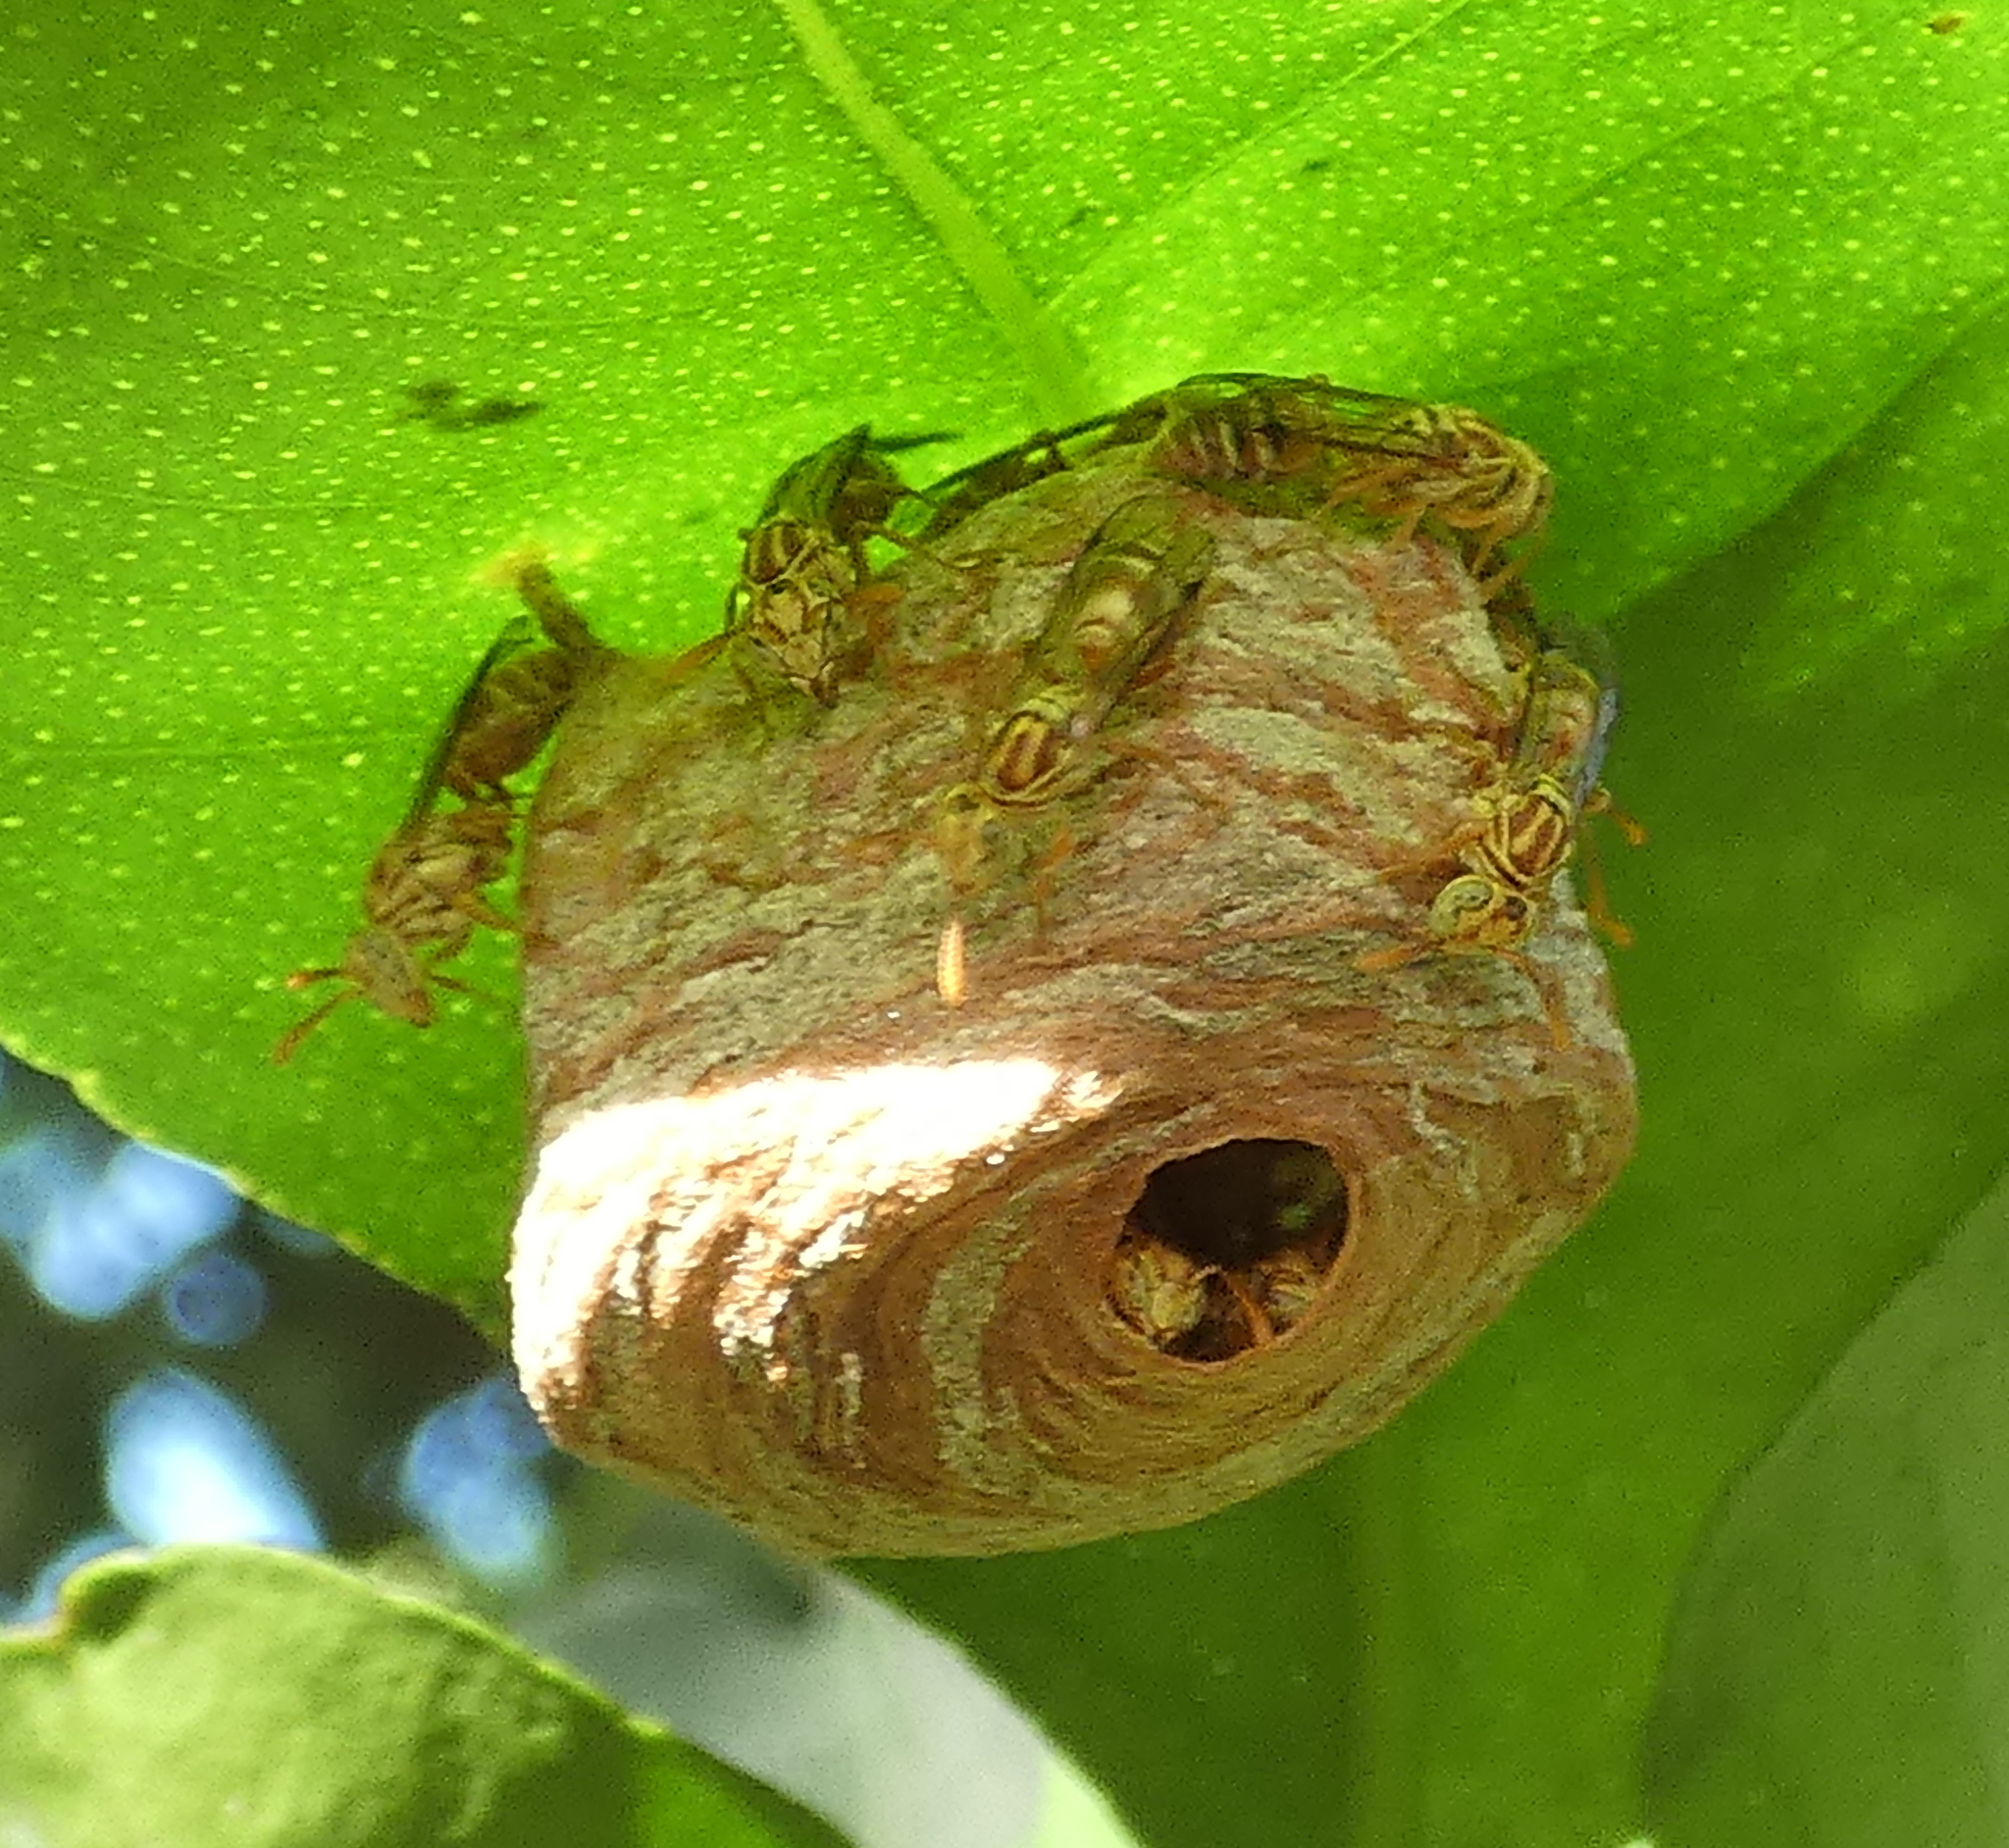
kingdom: Animalia
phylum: Arthropoda
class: Insecta
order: Hymenoptera
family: Vespidae
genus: Protopolybia
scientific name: Protopolybia potiguara
